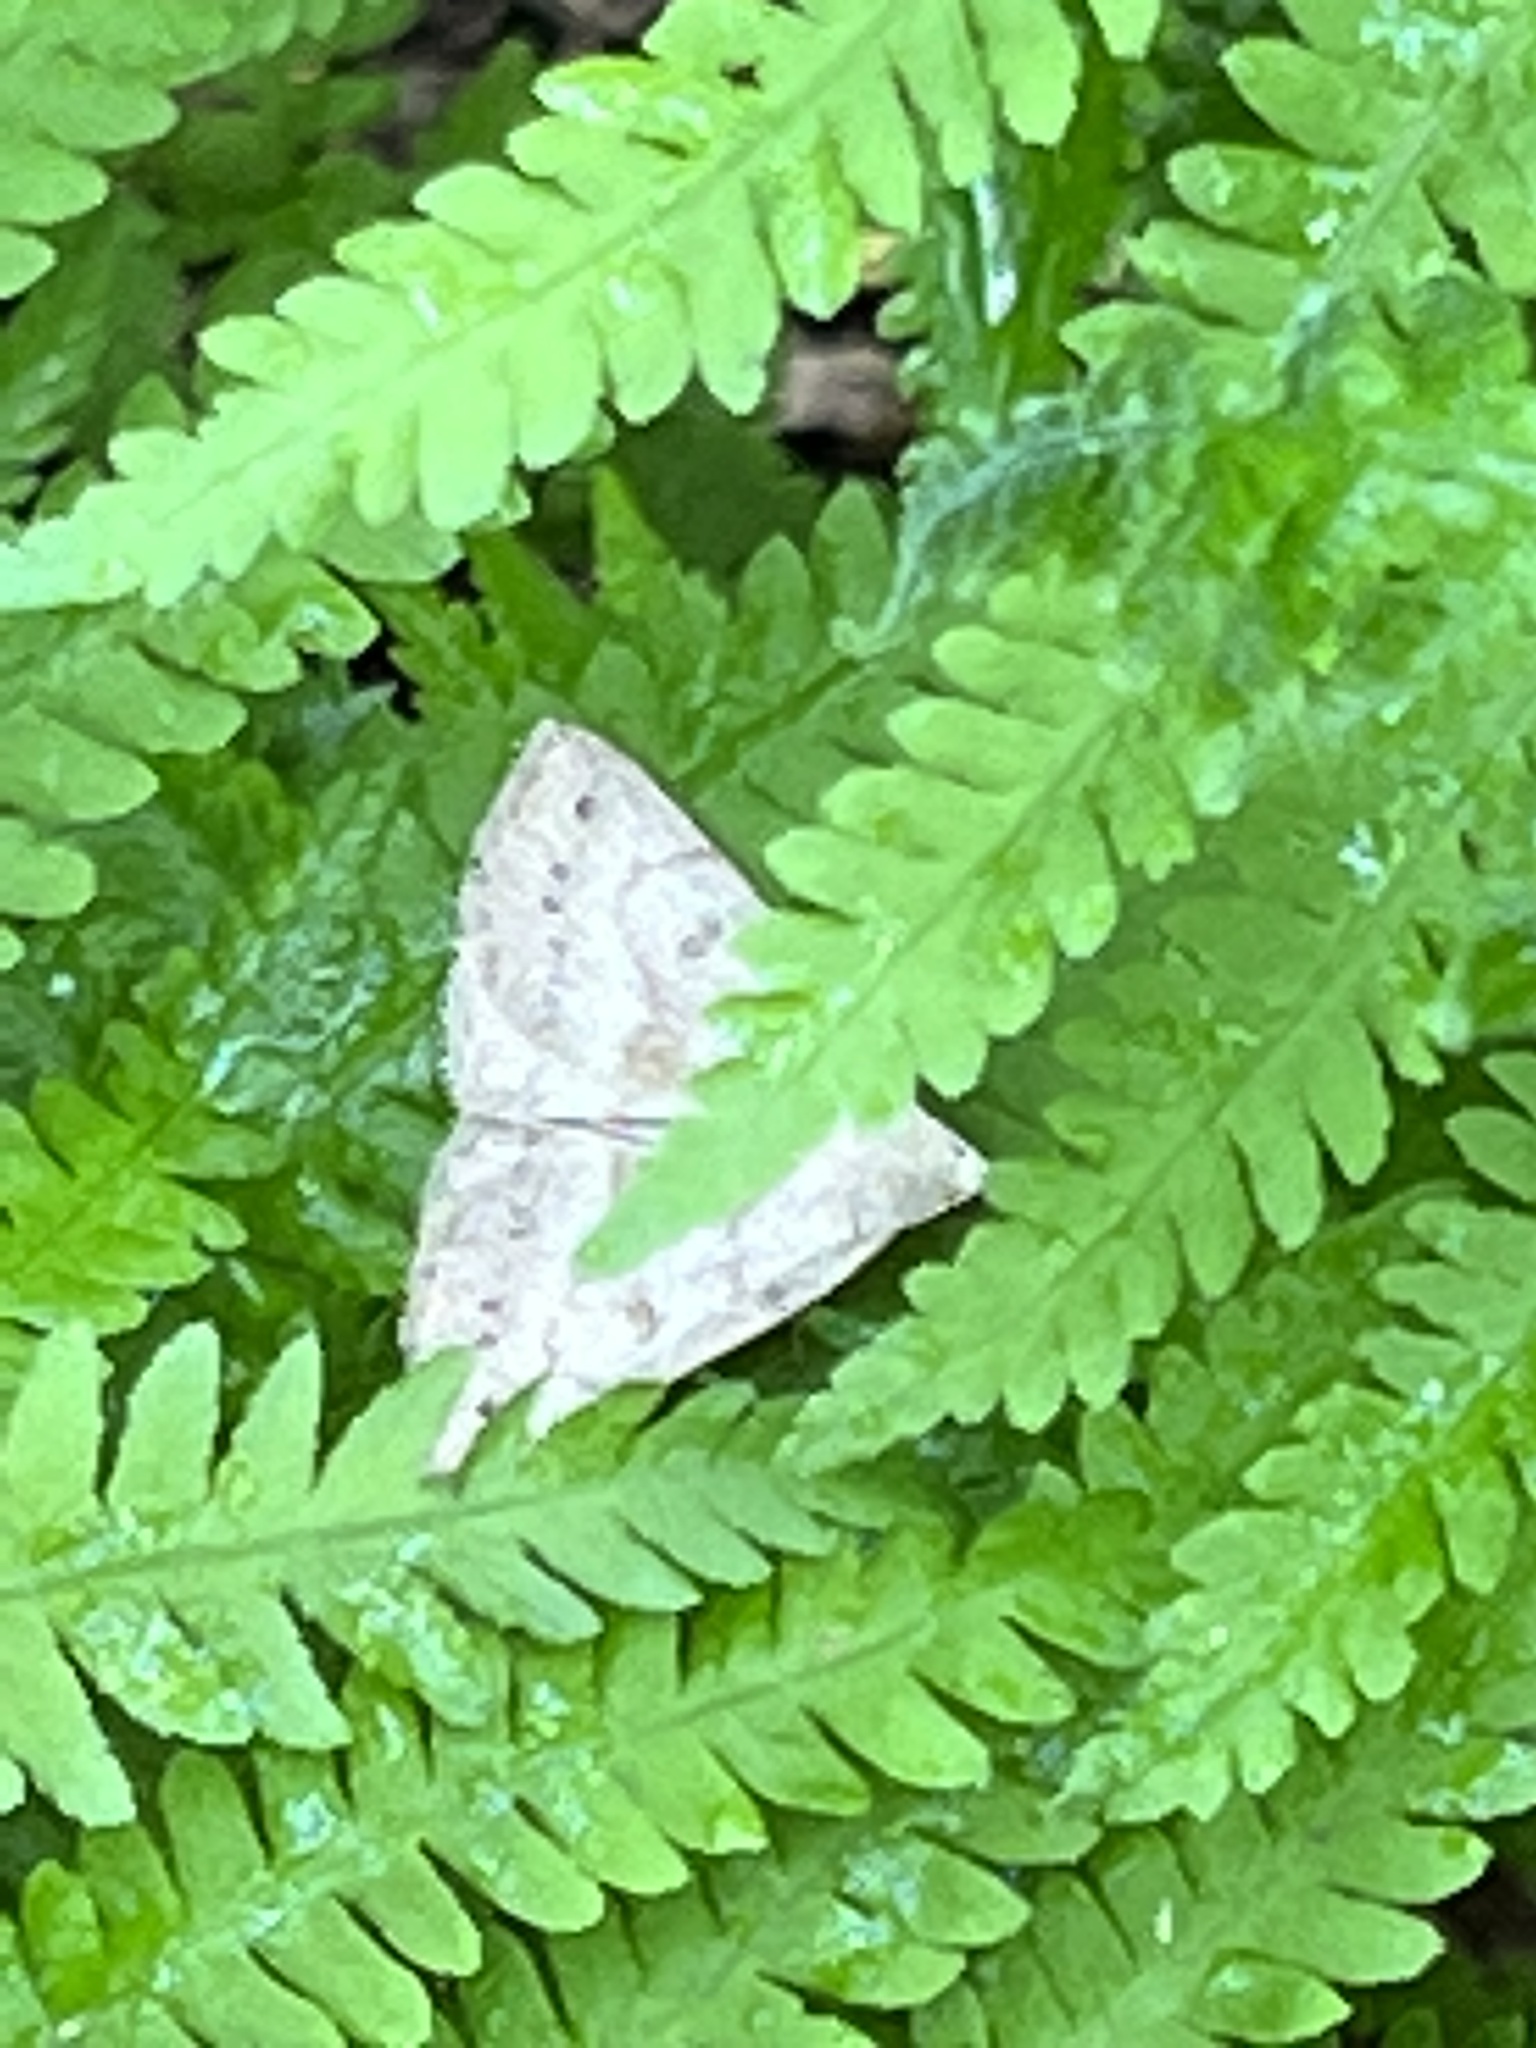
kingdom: Animalia
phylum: Arthropoda
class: Insecta
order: Lepidoptera
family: Erebidae
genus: Macrochilo
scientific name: Macrochilo morbidalis
